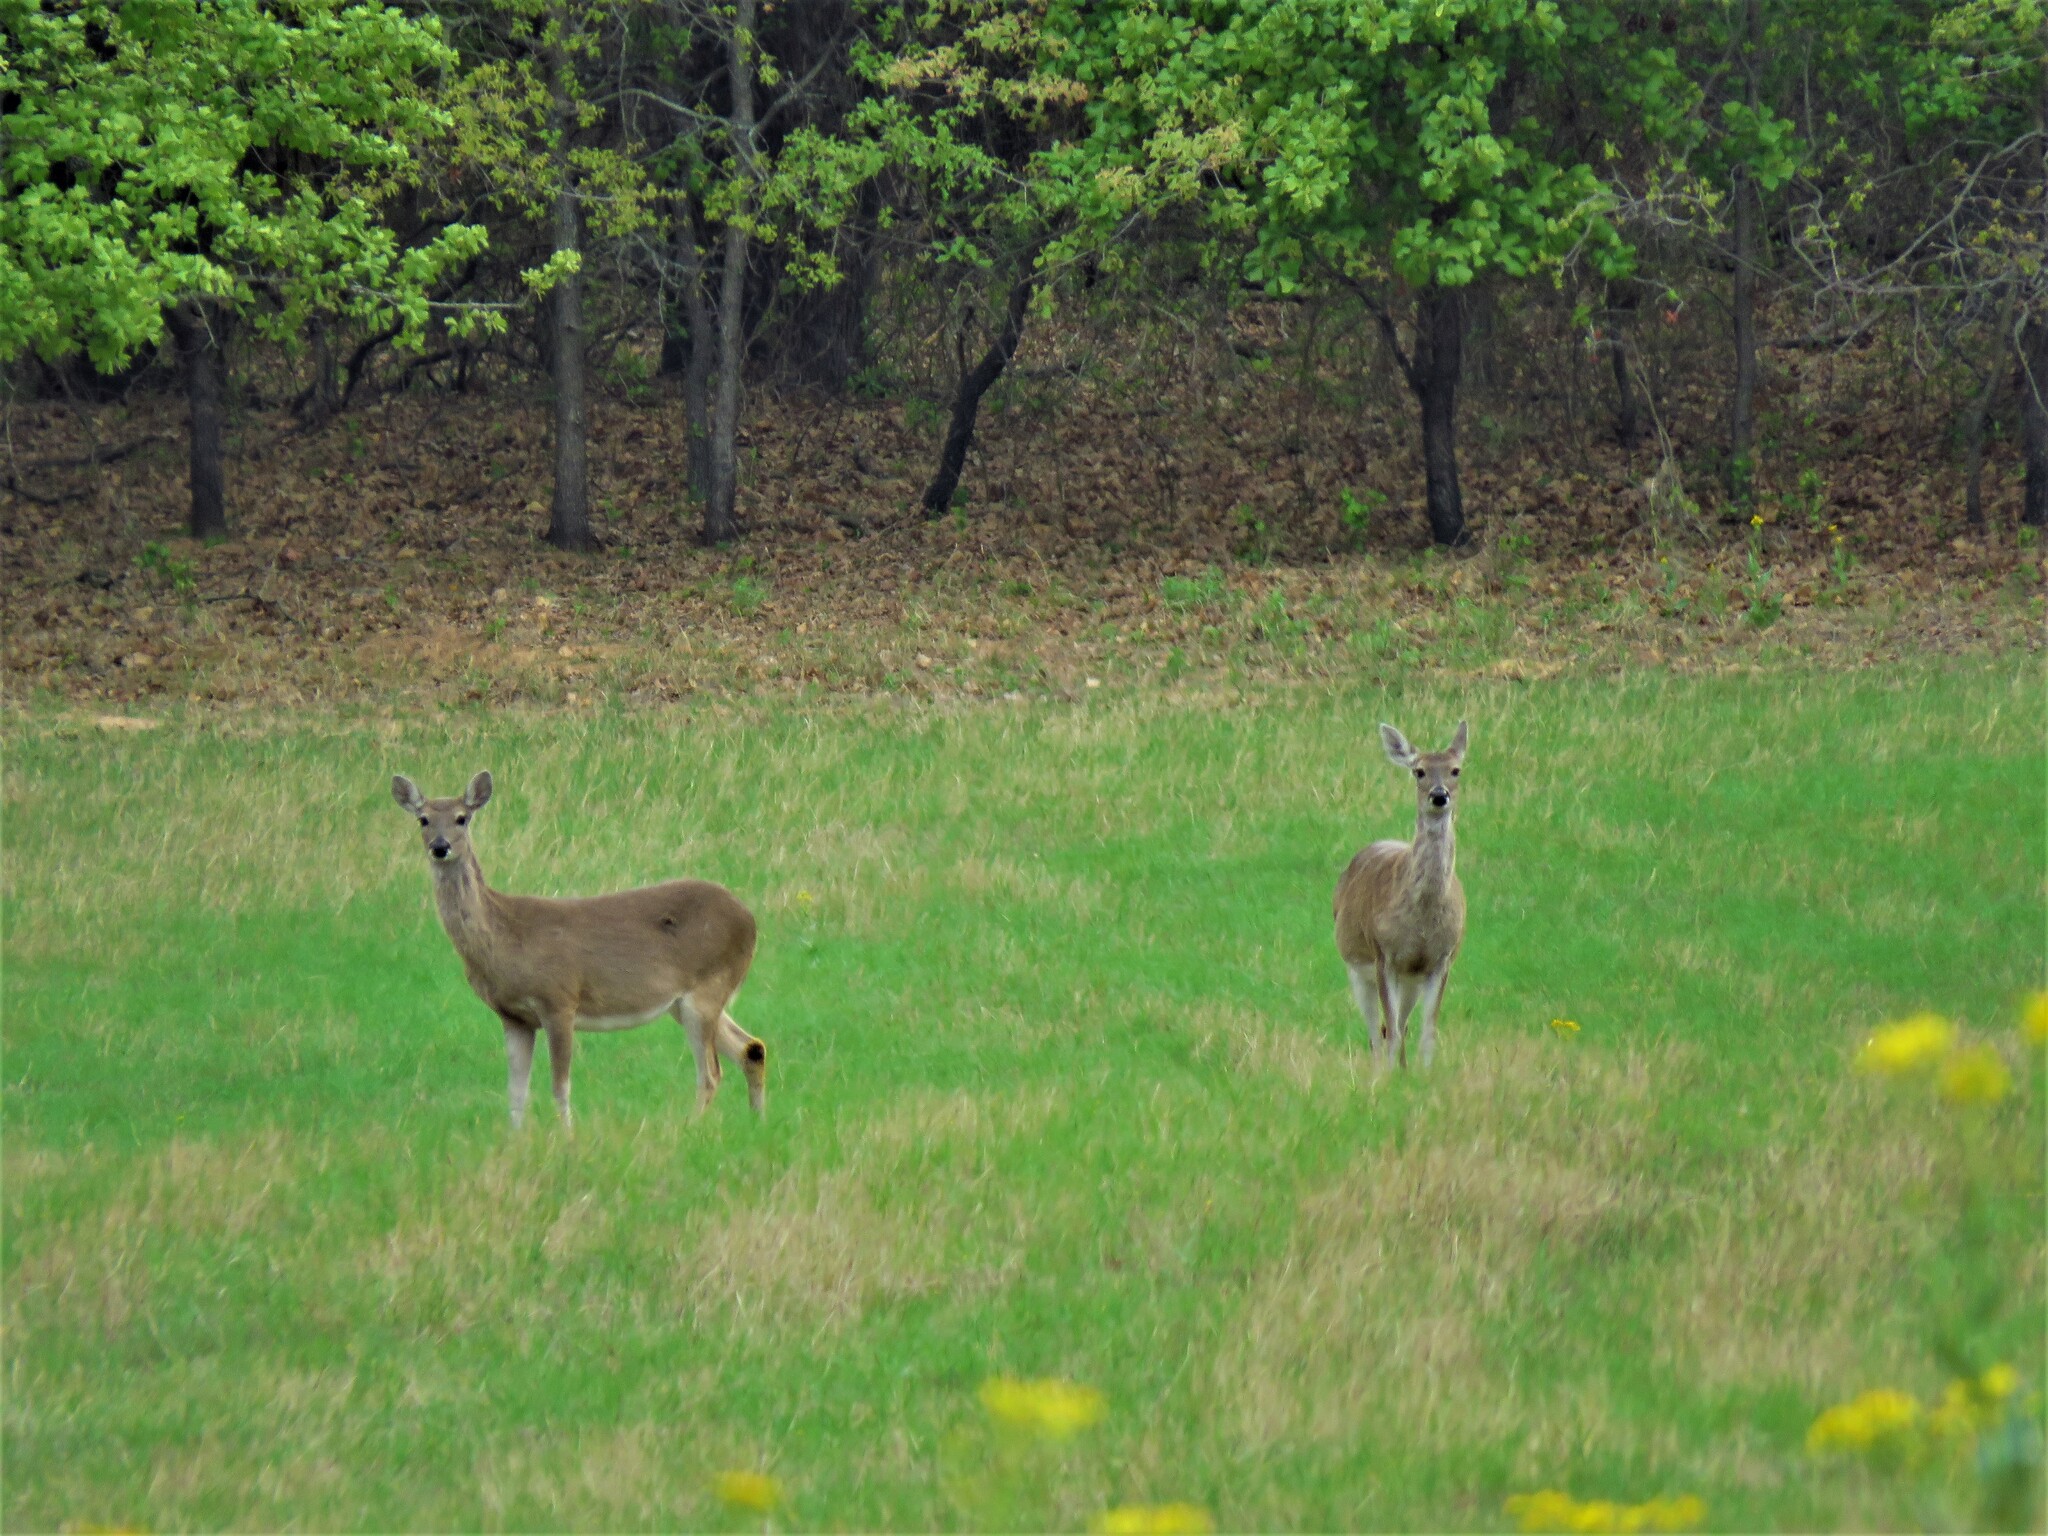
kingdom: Animalia
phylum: Chordata
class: Mammalia
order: Artiodactyla
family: Cervidae
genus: Odocoileus
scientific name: Odocoileus virginianus
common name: White-tailed deer
